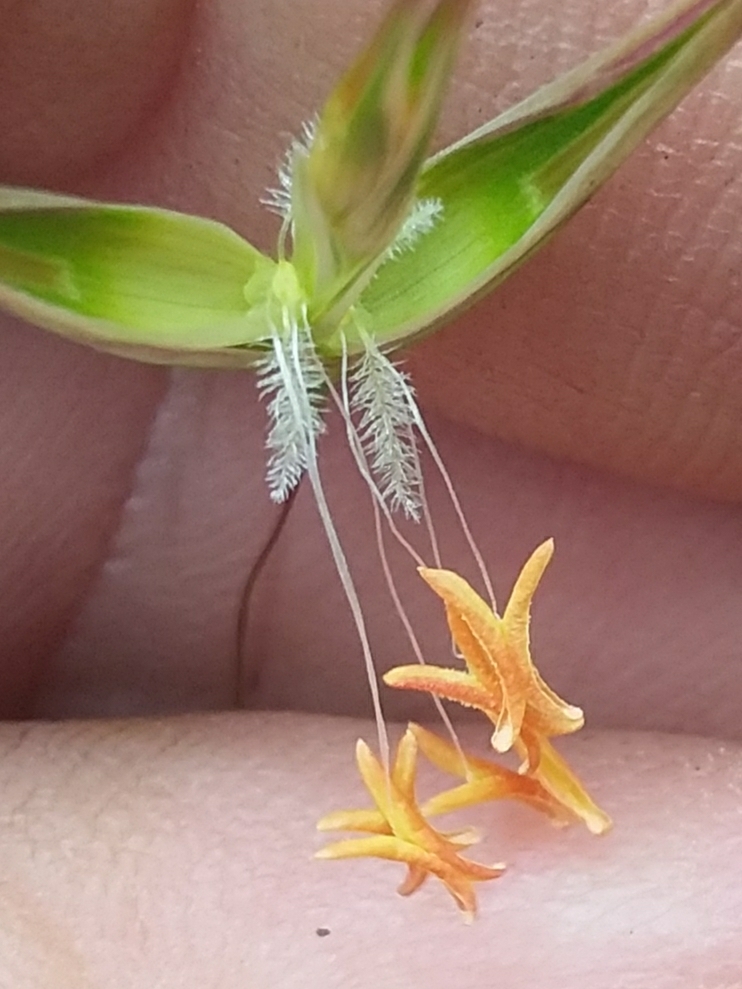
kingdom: Plantae
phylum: Tracheophyta
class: Liliopsida
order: Poales
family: Poaceae
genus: Rytidosperma
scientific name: Rytidosperma clelandii
